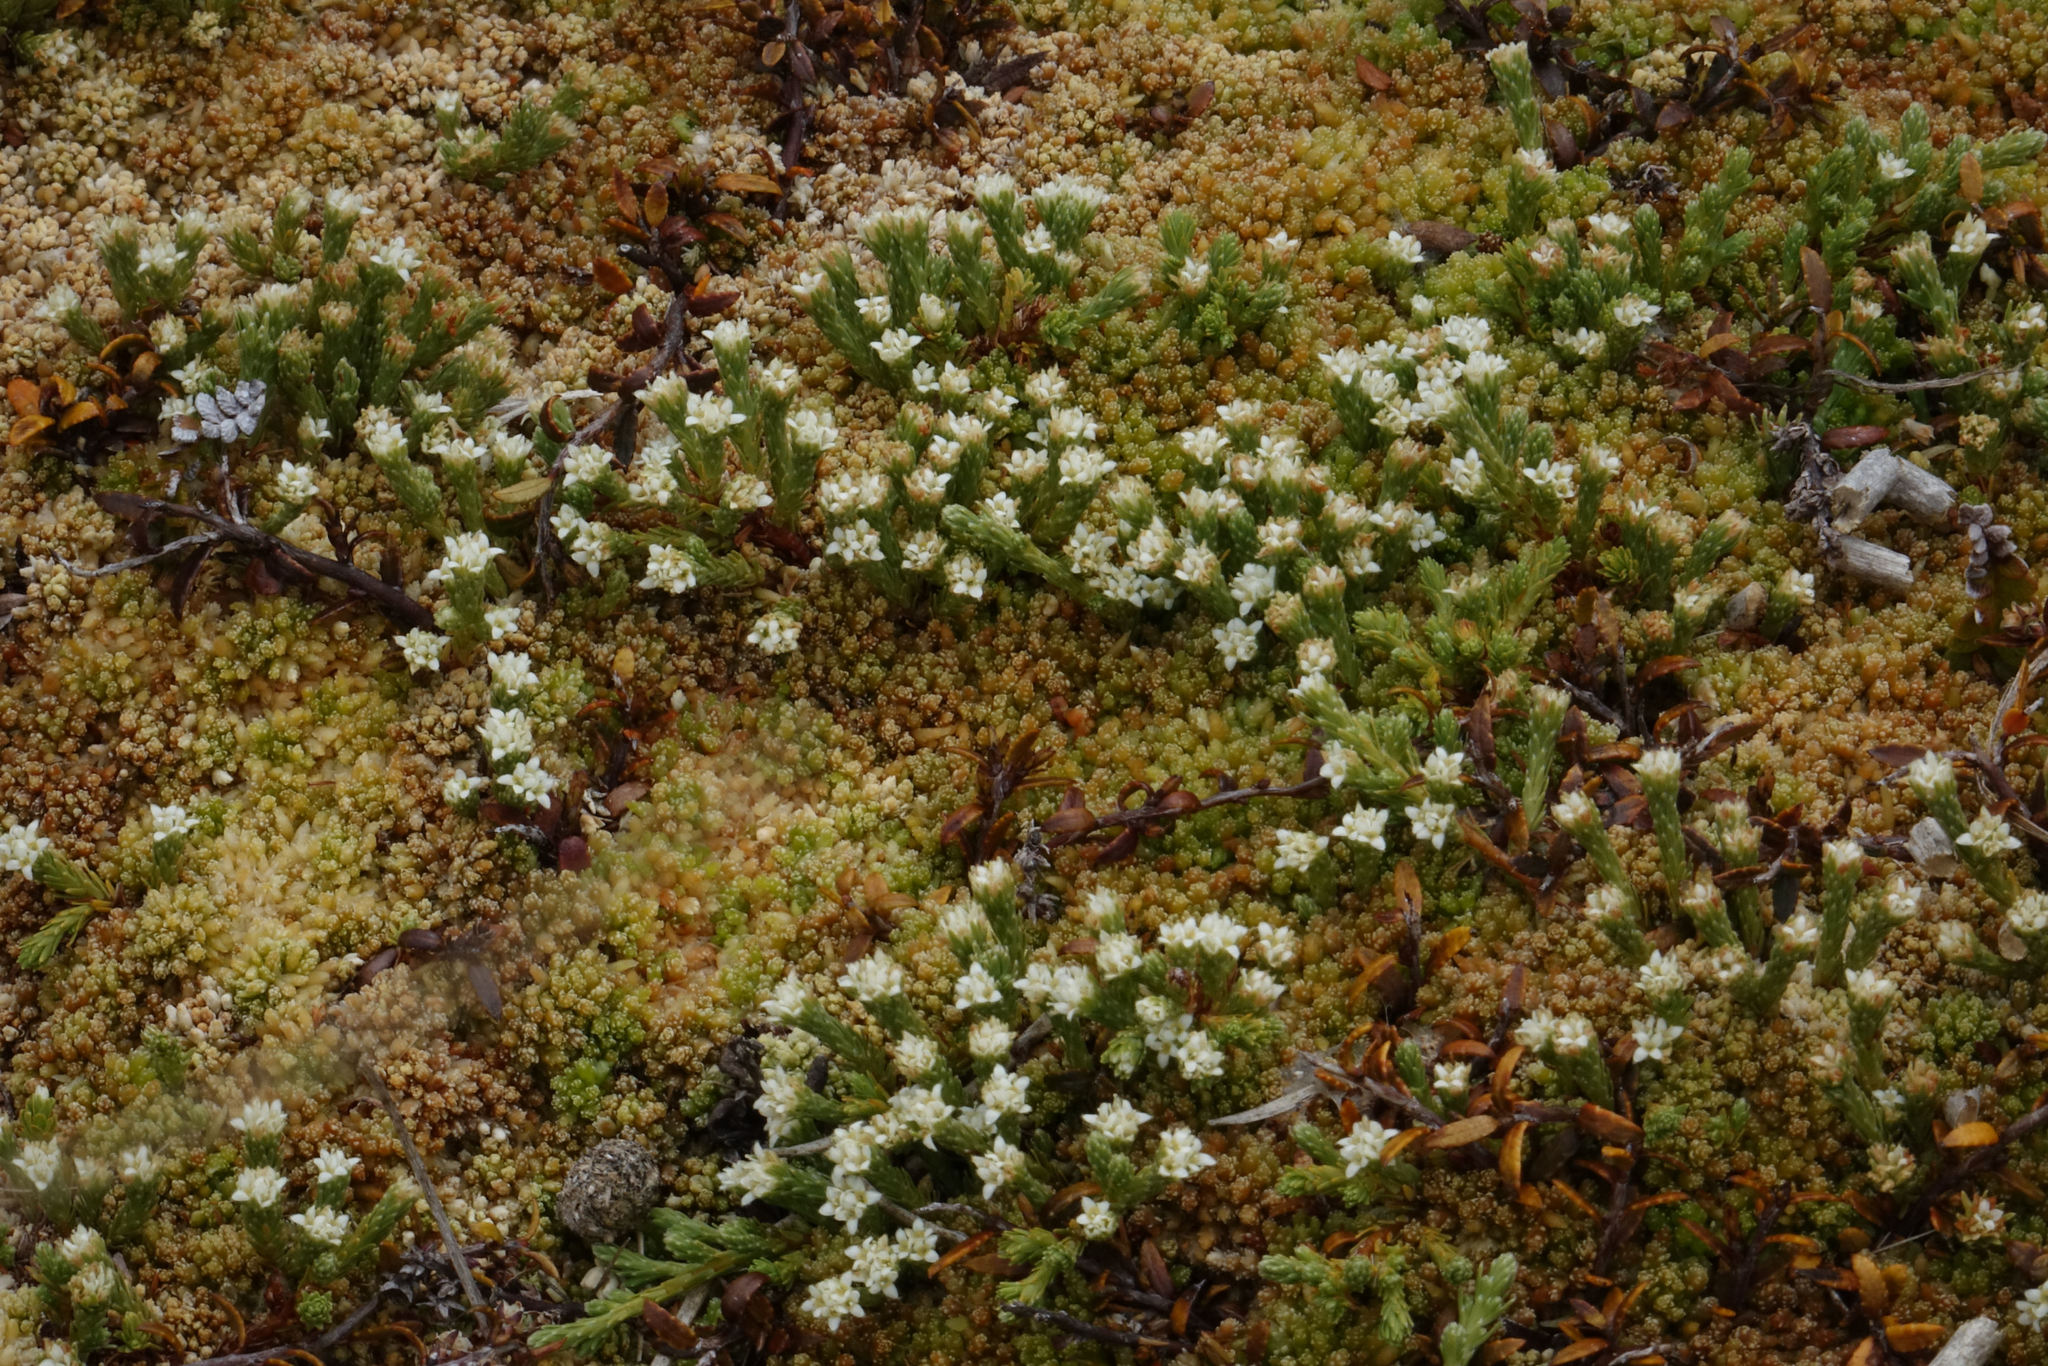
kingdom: Plantae
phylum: Tracheophyta
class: Magnoliopsida
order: Malvales
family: Thymelaeaceae
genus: Kelleria
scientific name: Kelleria dieffenbachii
